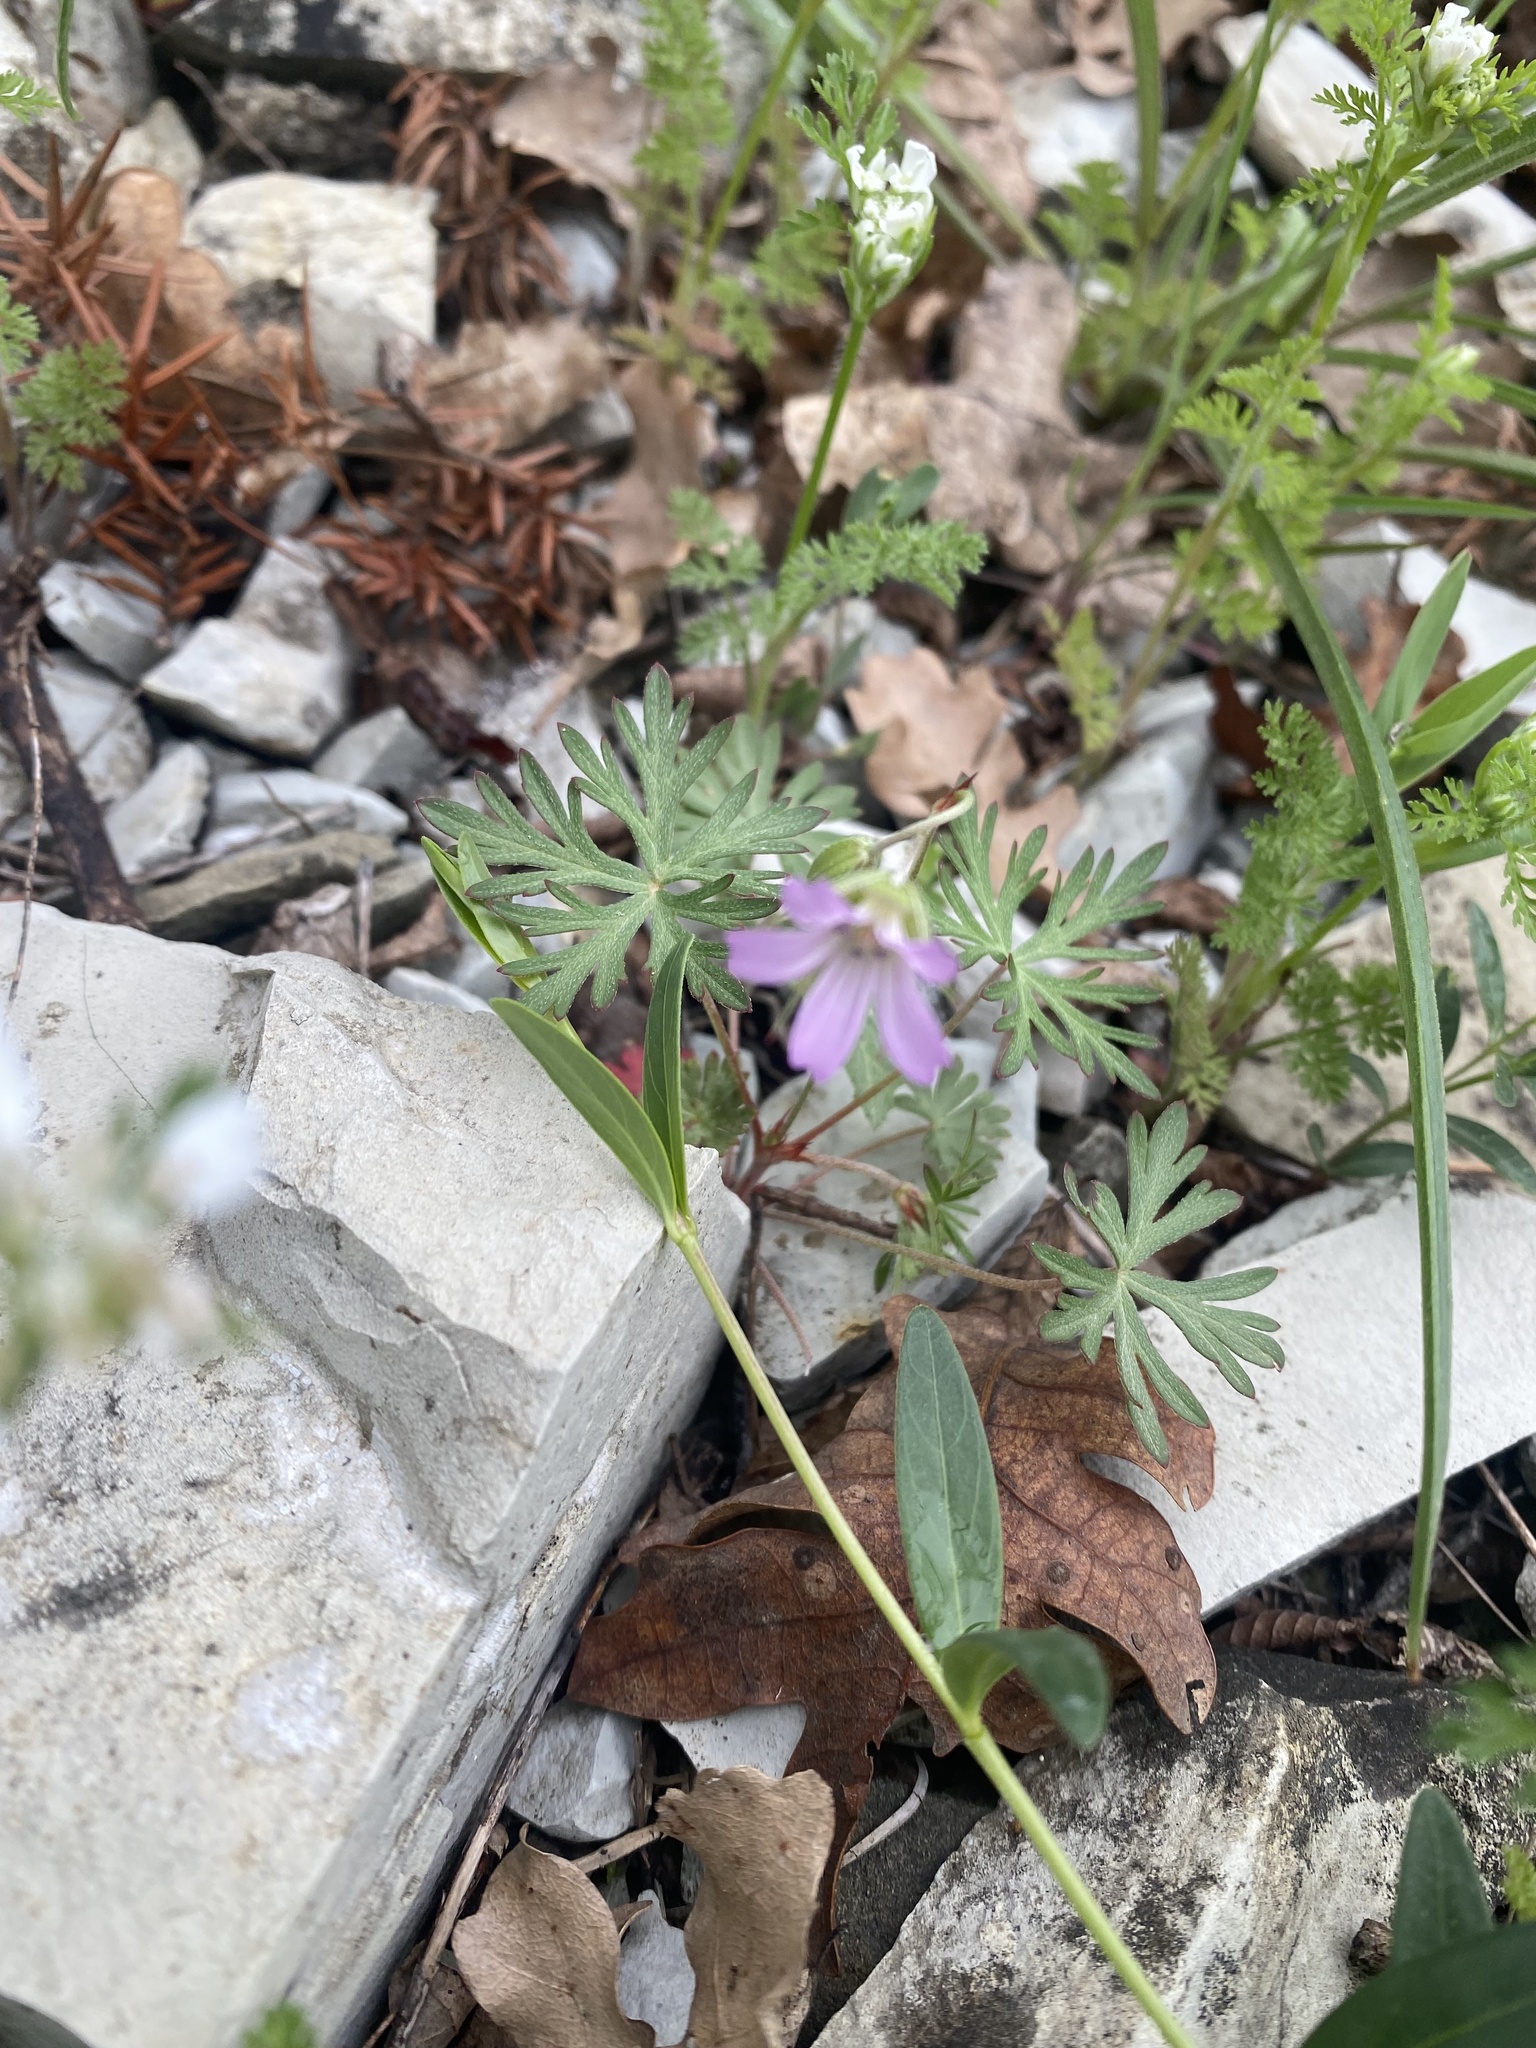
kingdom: Plantae
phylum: Tracheophyta
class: Magnoliopsida
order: Geraniales
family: Geraniaceae
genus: Geranium
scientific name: Geranium columbinum
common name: Long-stalked crane's-bill
